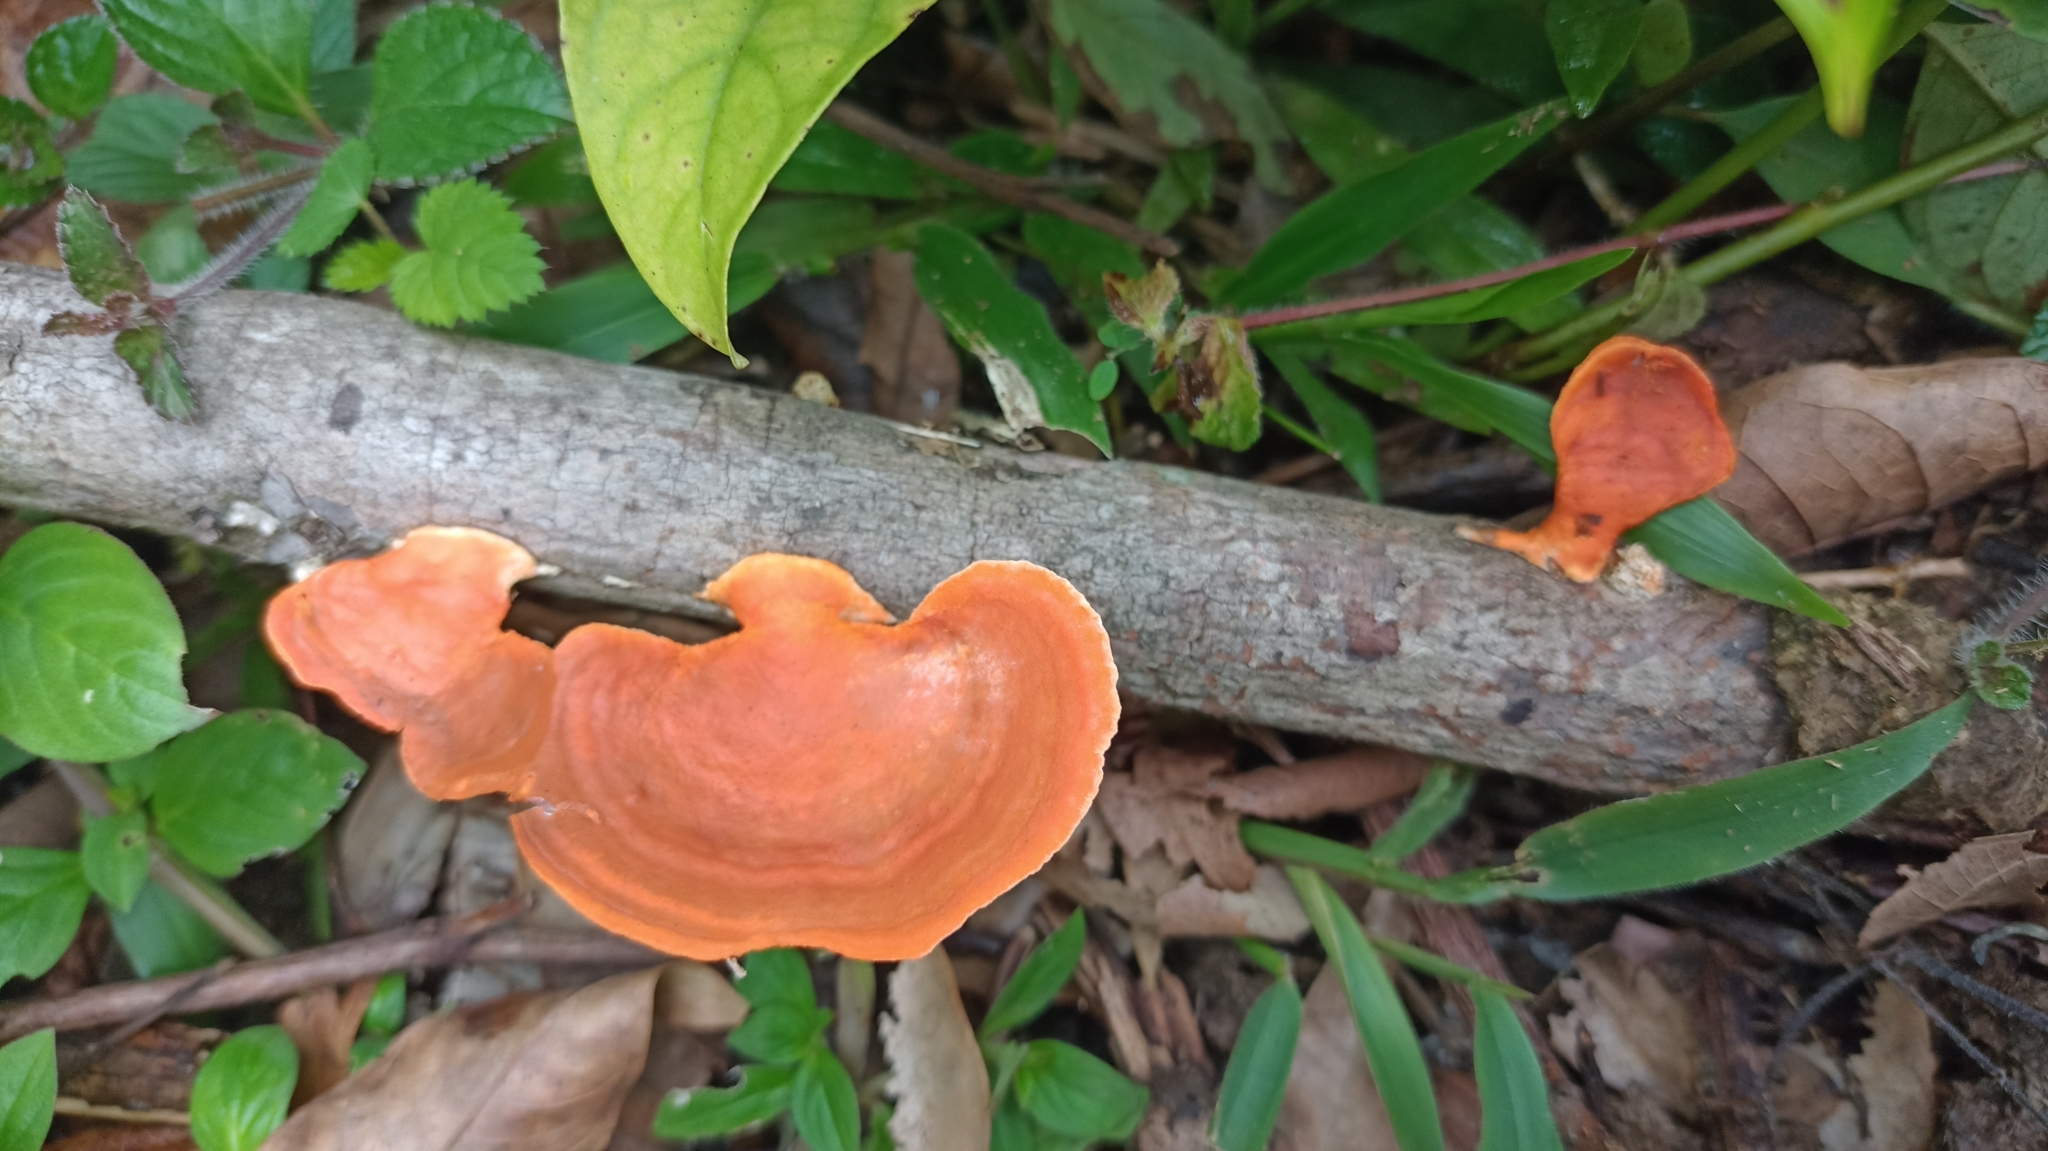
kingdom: Fungi
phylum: Basidiomycota
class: Agaricomycetes
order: Polyporales
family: Polyporaceae
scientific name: Polyporaceae
